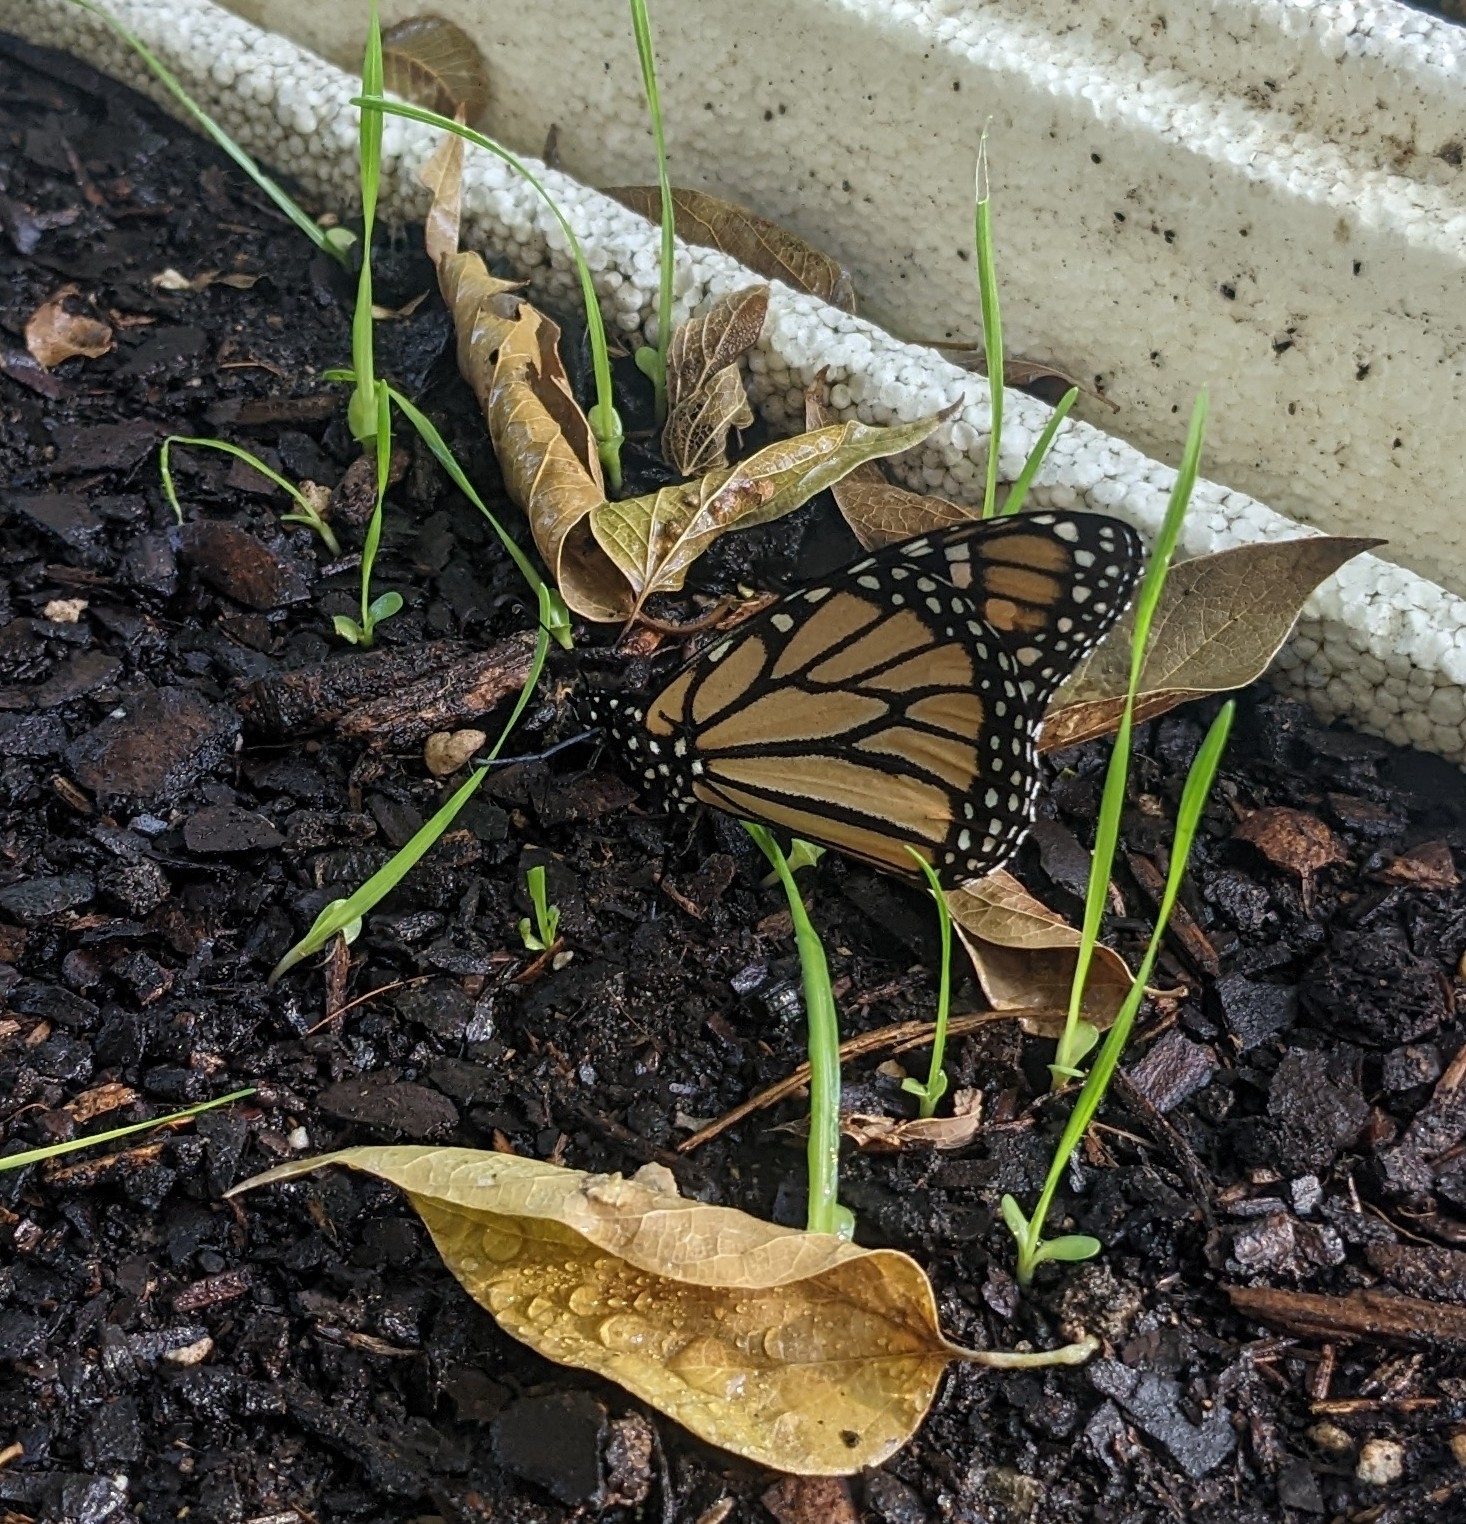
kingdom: Animalia
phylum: Arthropoda
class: Insecta
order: Lepidoptera
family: Nymphalidae
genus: Danaus
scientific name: Danaus plexippus
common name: Monarch
